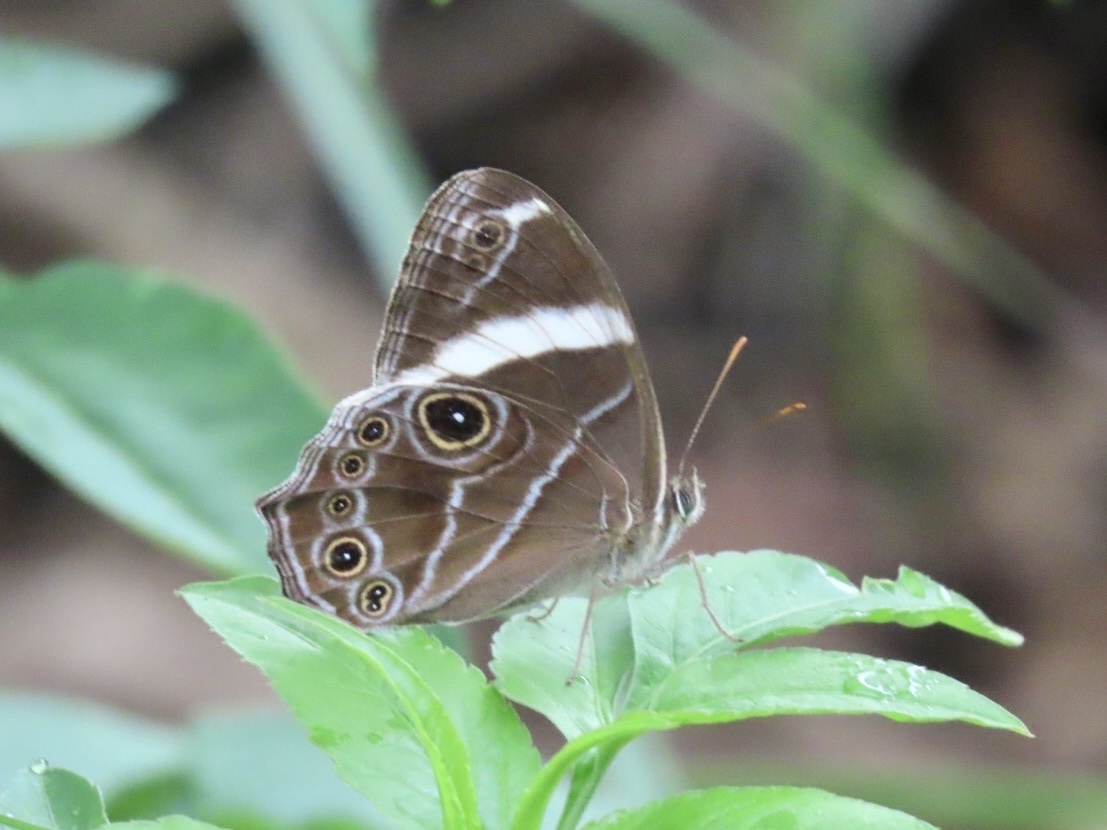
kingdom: Animalia
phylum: Arthropoda
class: Insecta
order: Lepidoptera
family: Nymphalidae
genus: Lethe
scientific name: Lethe confusa
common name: Banded treebrown
